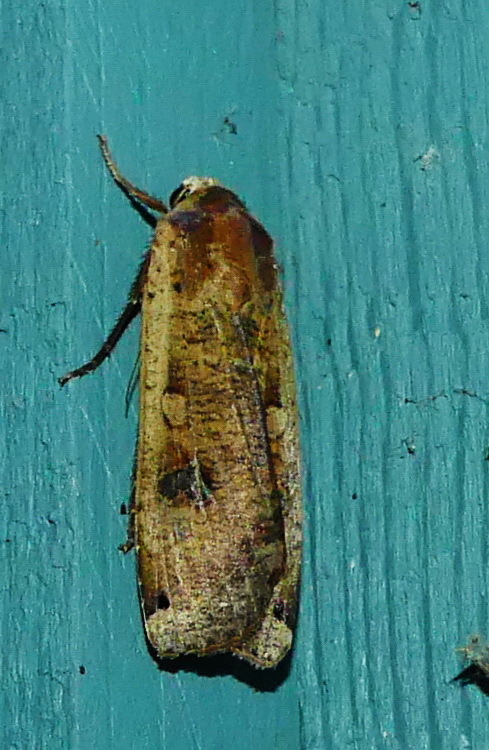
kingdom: Animalia
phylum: Arthropoda
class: Insecta
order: Lepidoptera
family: Noctuidae
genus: Noctua
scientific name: Noctua pronuba
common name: Large yellow underwing
